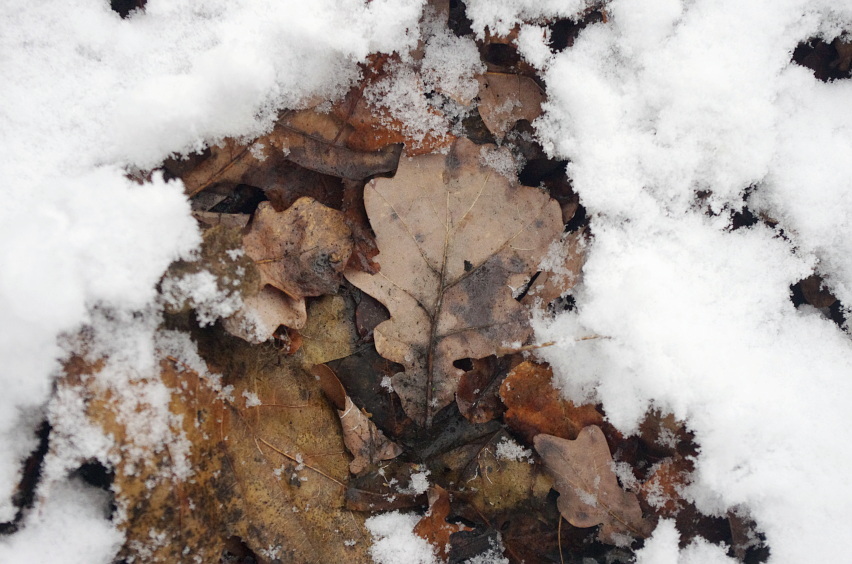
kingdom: Plantae
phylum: Tracheophyta
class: Magnoliopsida
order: Fagales
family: Fagaceae
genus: Quercus
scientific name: Quercus robur
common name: Pedunculate oak
